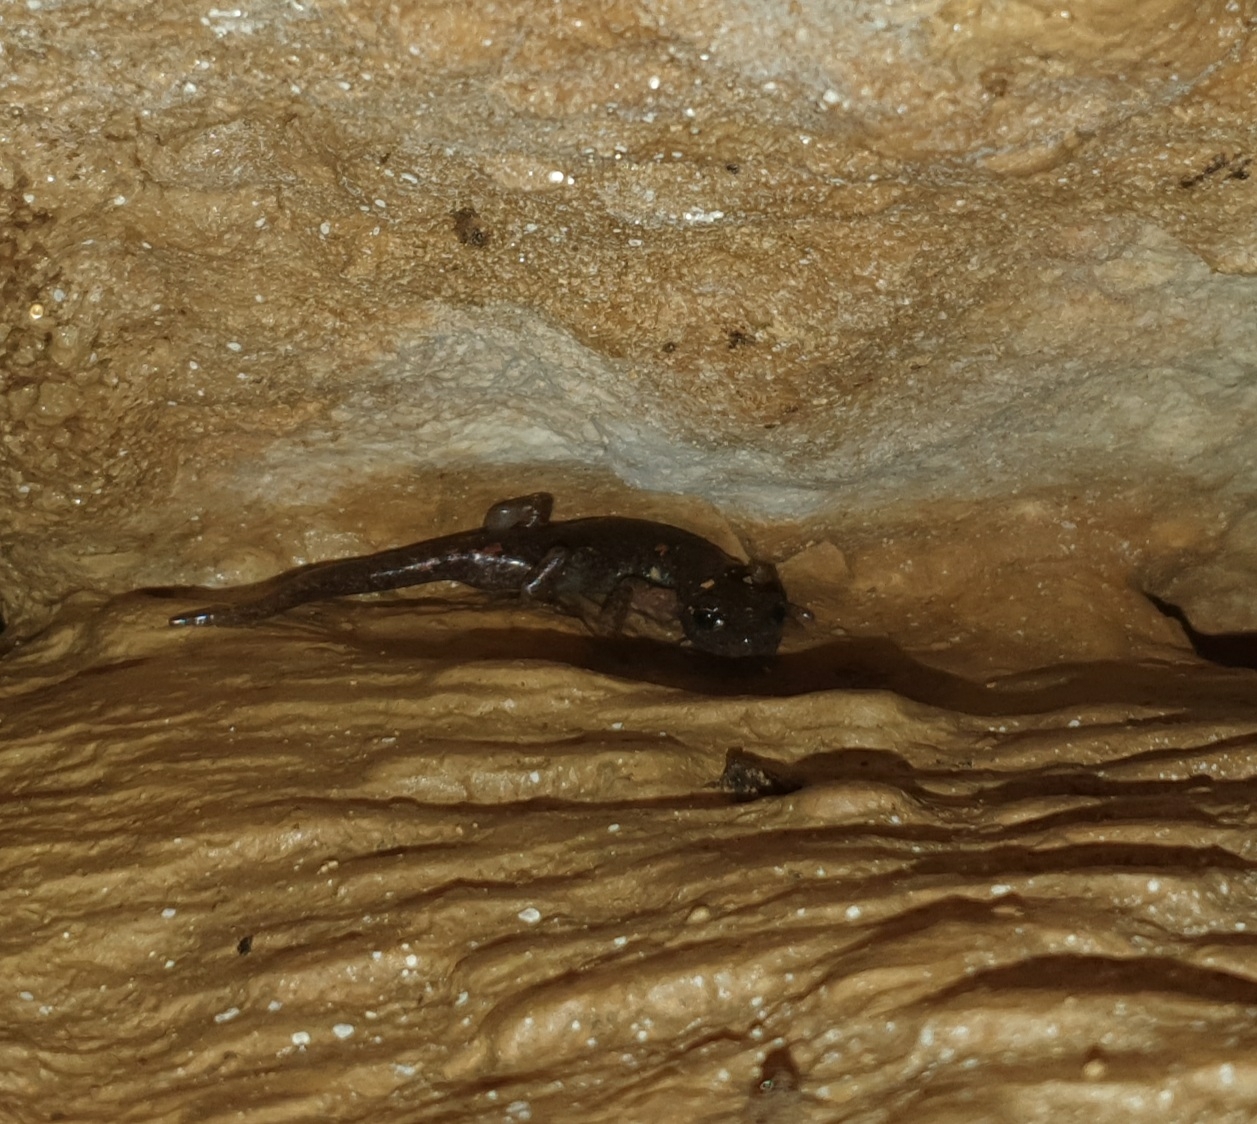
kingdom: Animalia
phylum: Chordata
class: Amphibia
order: Caudata
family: Plethodontidae
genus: Speleomantes
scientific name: Speleomantes ambrosii
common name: Ambrosi's cave salamander
